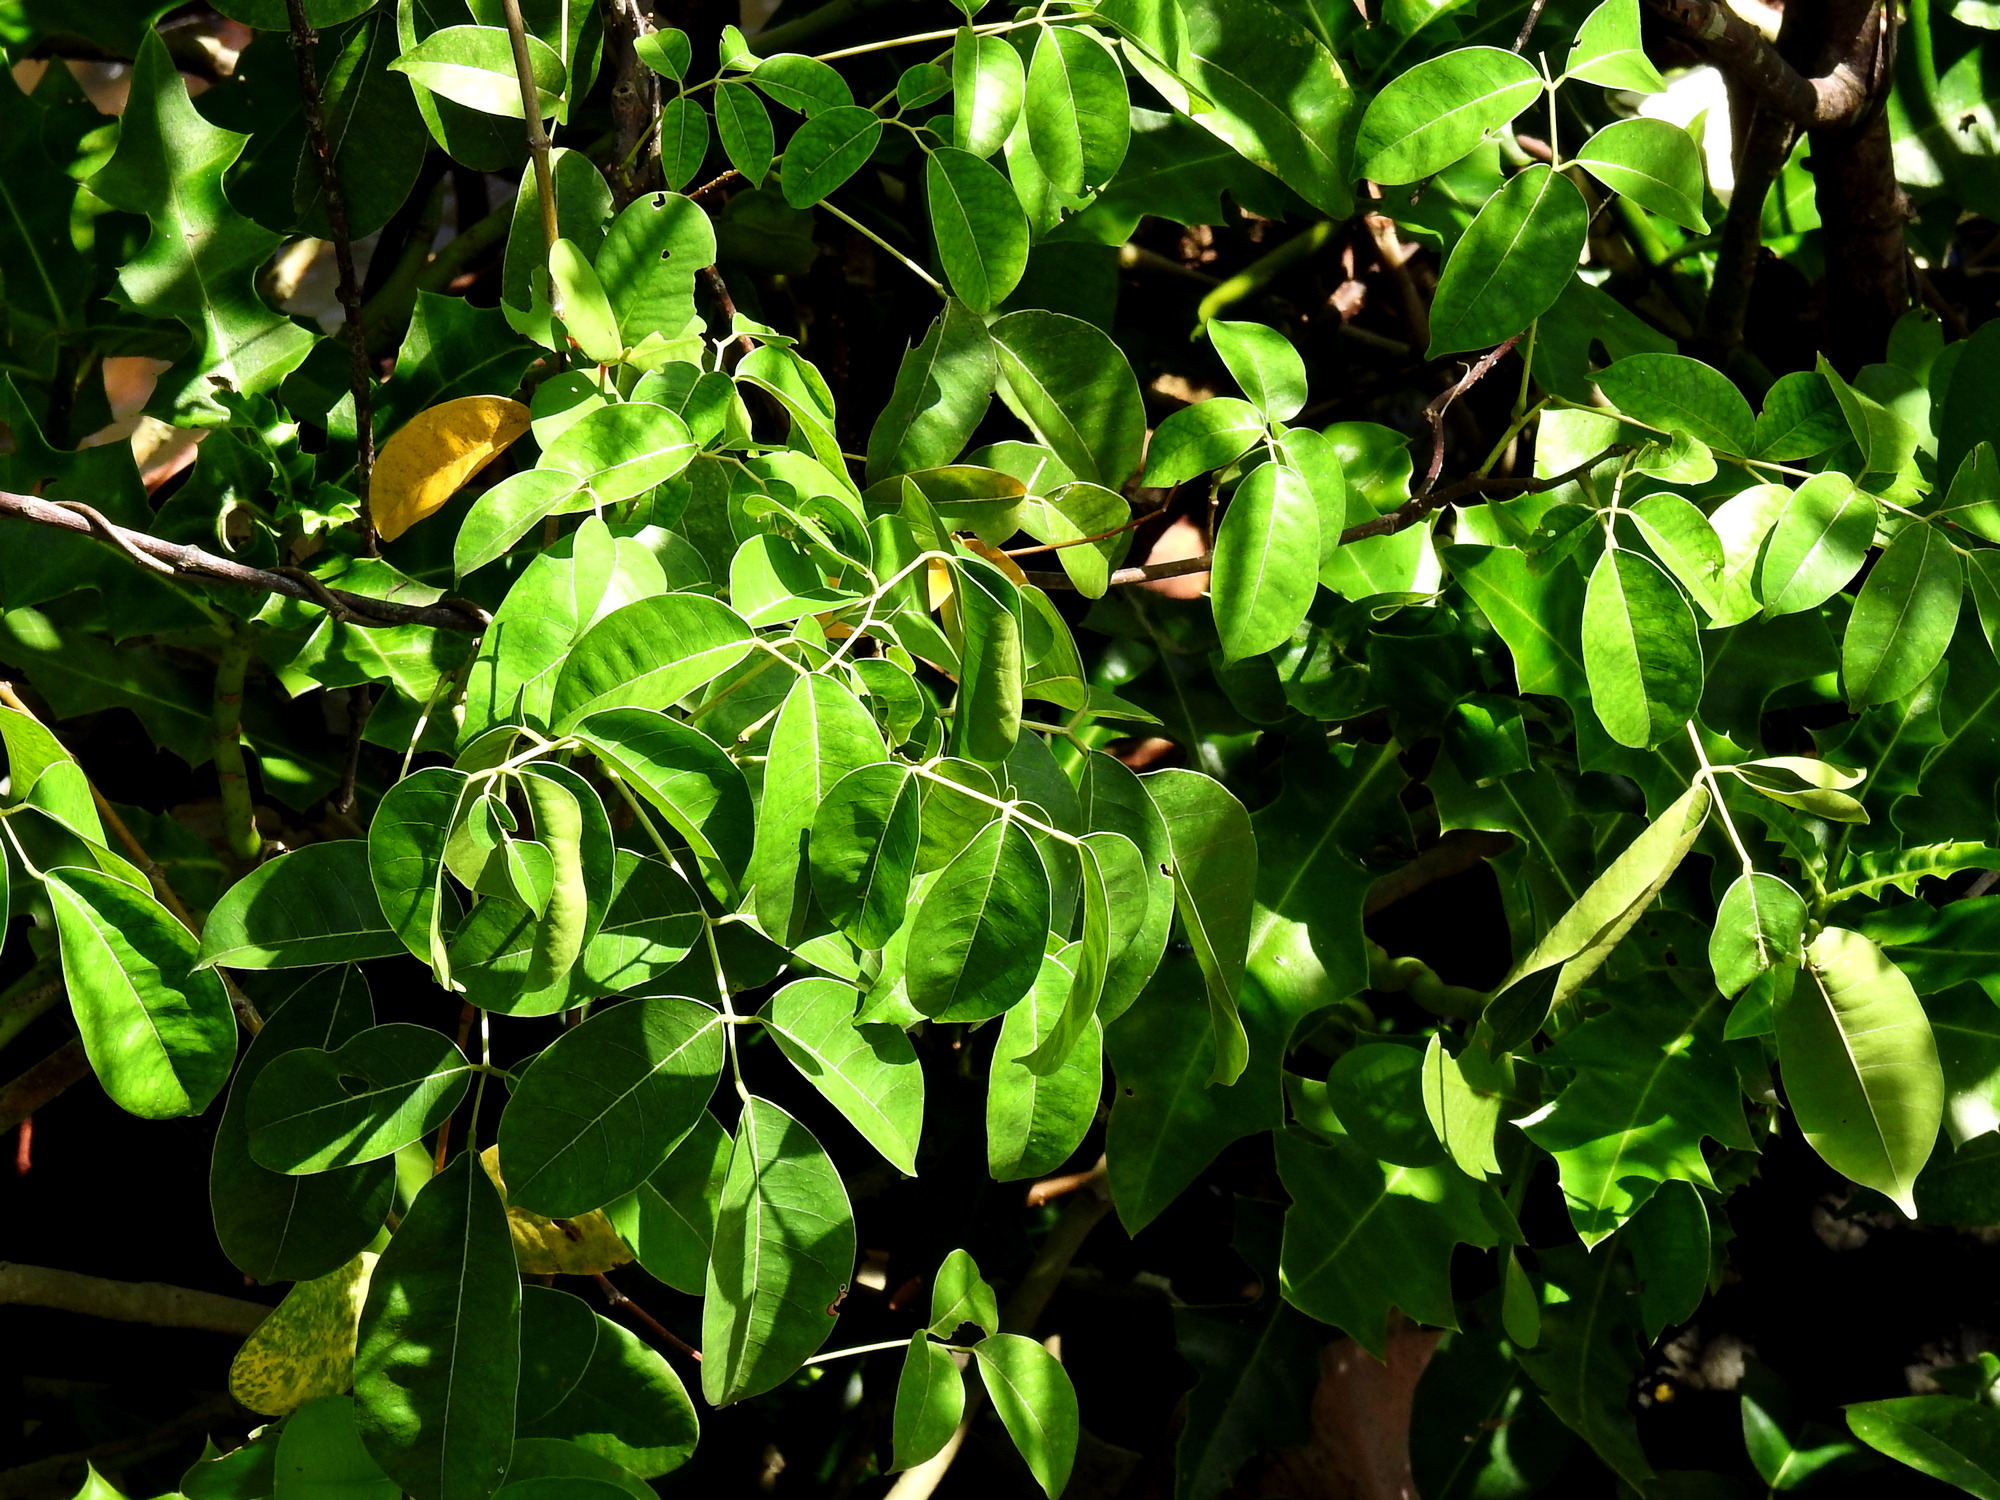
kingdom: Plantae
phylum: Tracheophyta
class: Magnoliopsida
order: Fabales
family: Fabaceae
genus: Derris
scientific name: Derris trifoliata
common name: Three-leaf derris
